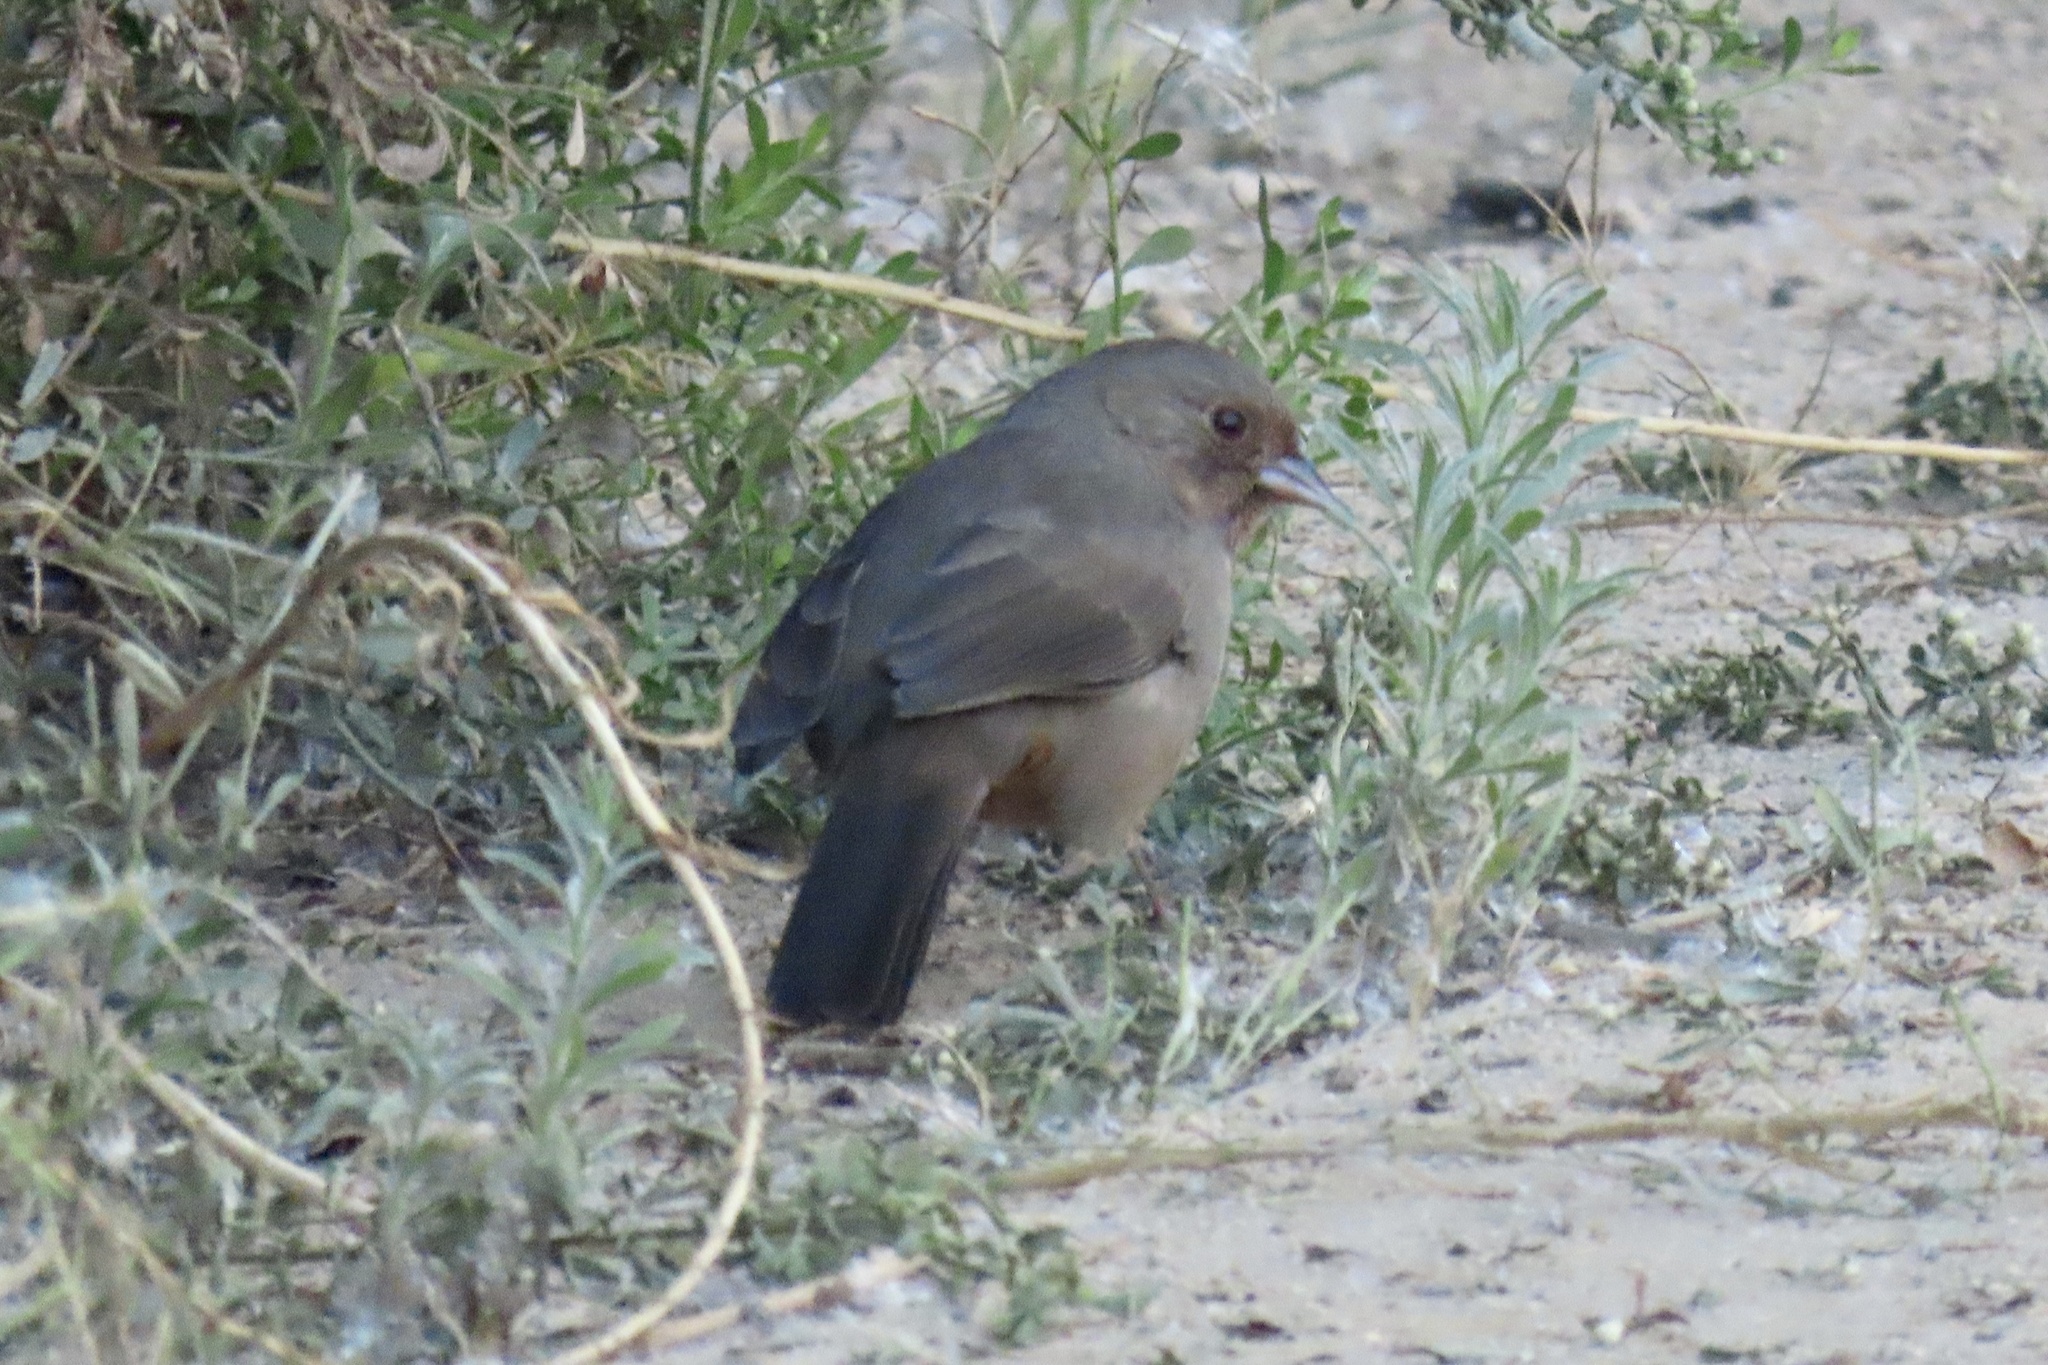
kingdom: Animalia
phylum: Chordata
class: Aves
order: Passeriformes
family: Passerellidae
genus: Melozone
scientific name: Melozone crissalis
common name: California towhee
